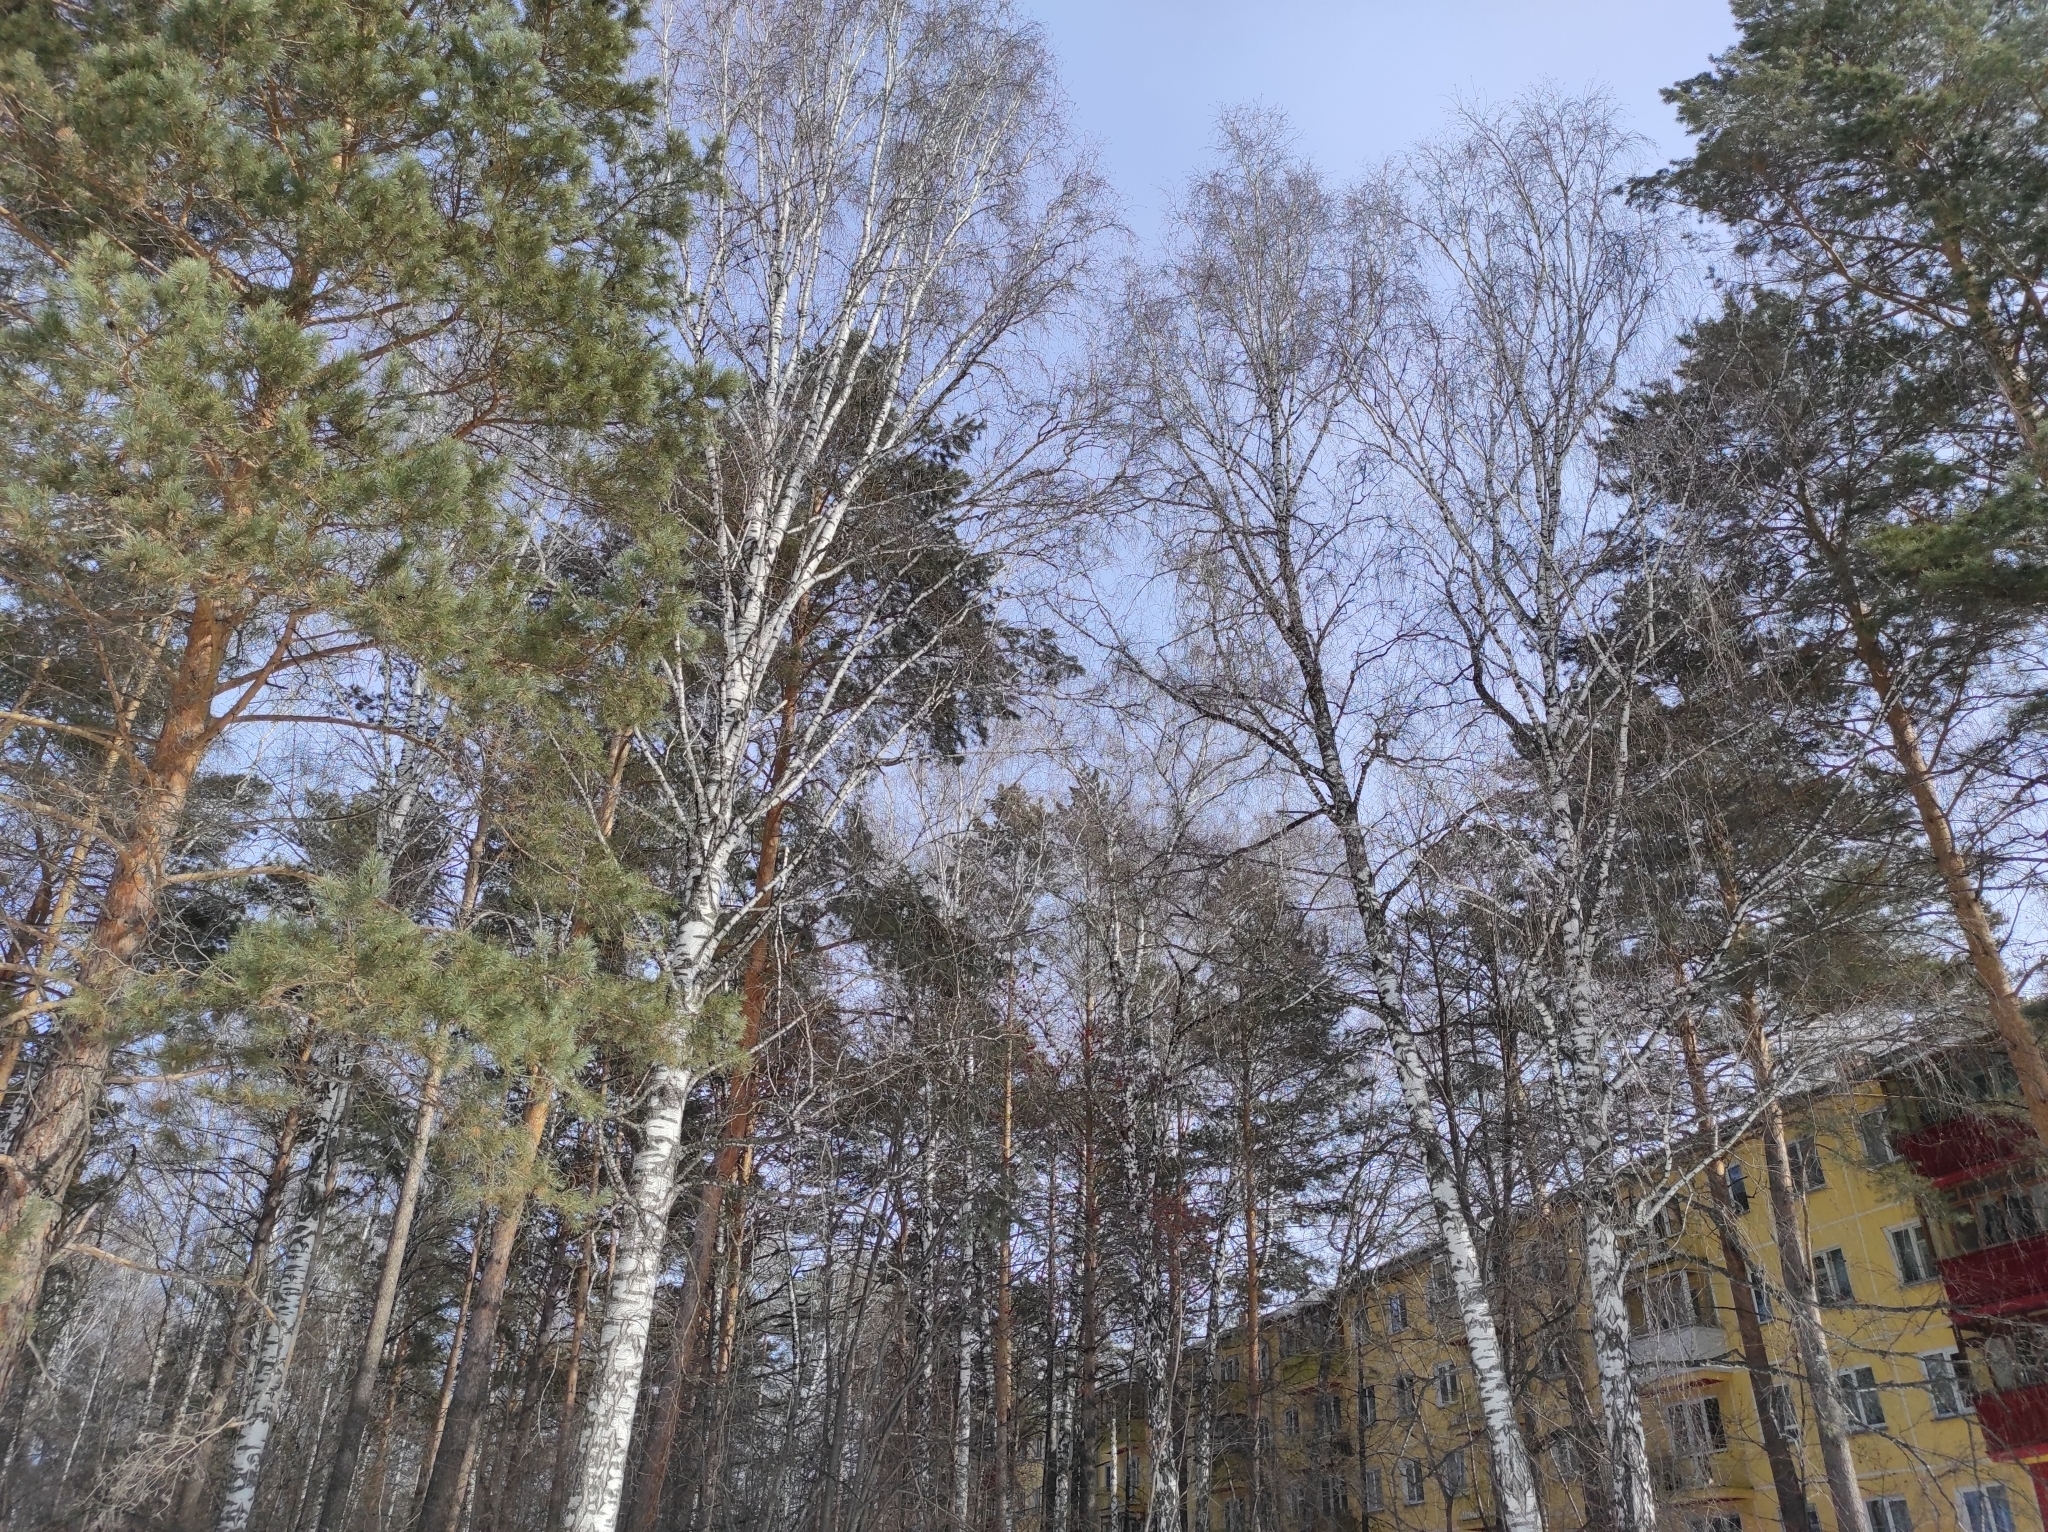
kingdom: Plantae
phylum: Tracheophyta
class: Pinopsida
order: Pinales
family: Pinaceae
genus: Pinus
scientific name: Pinus sylvestris
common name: Scots pine
